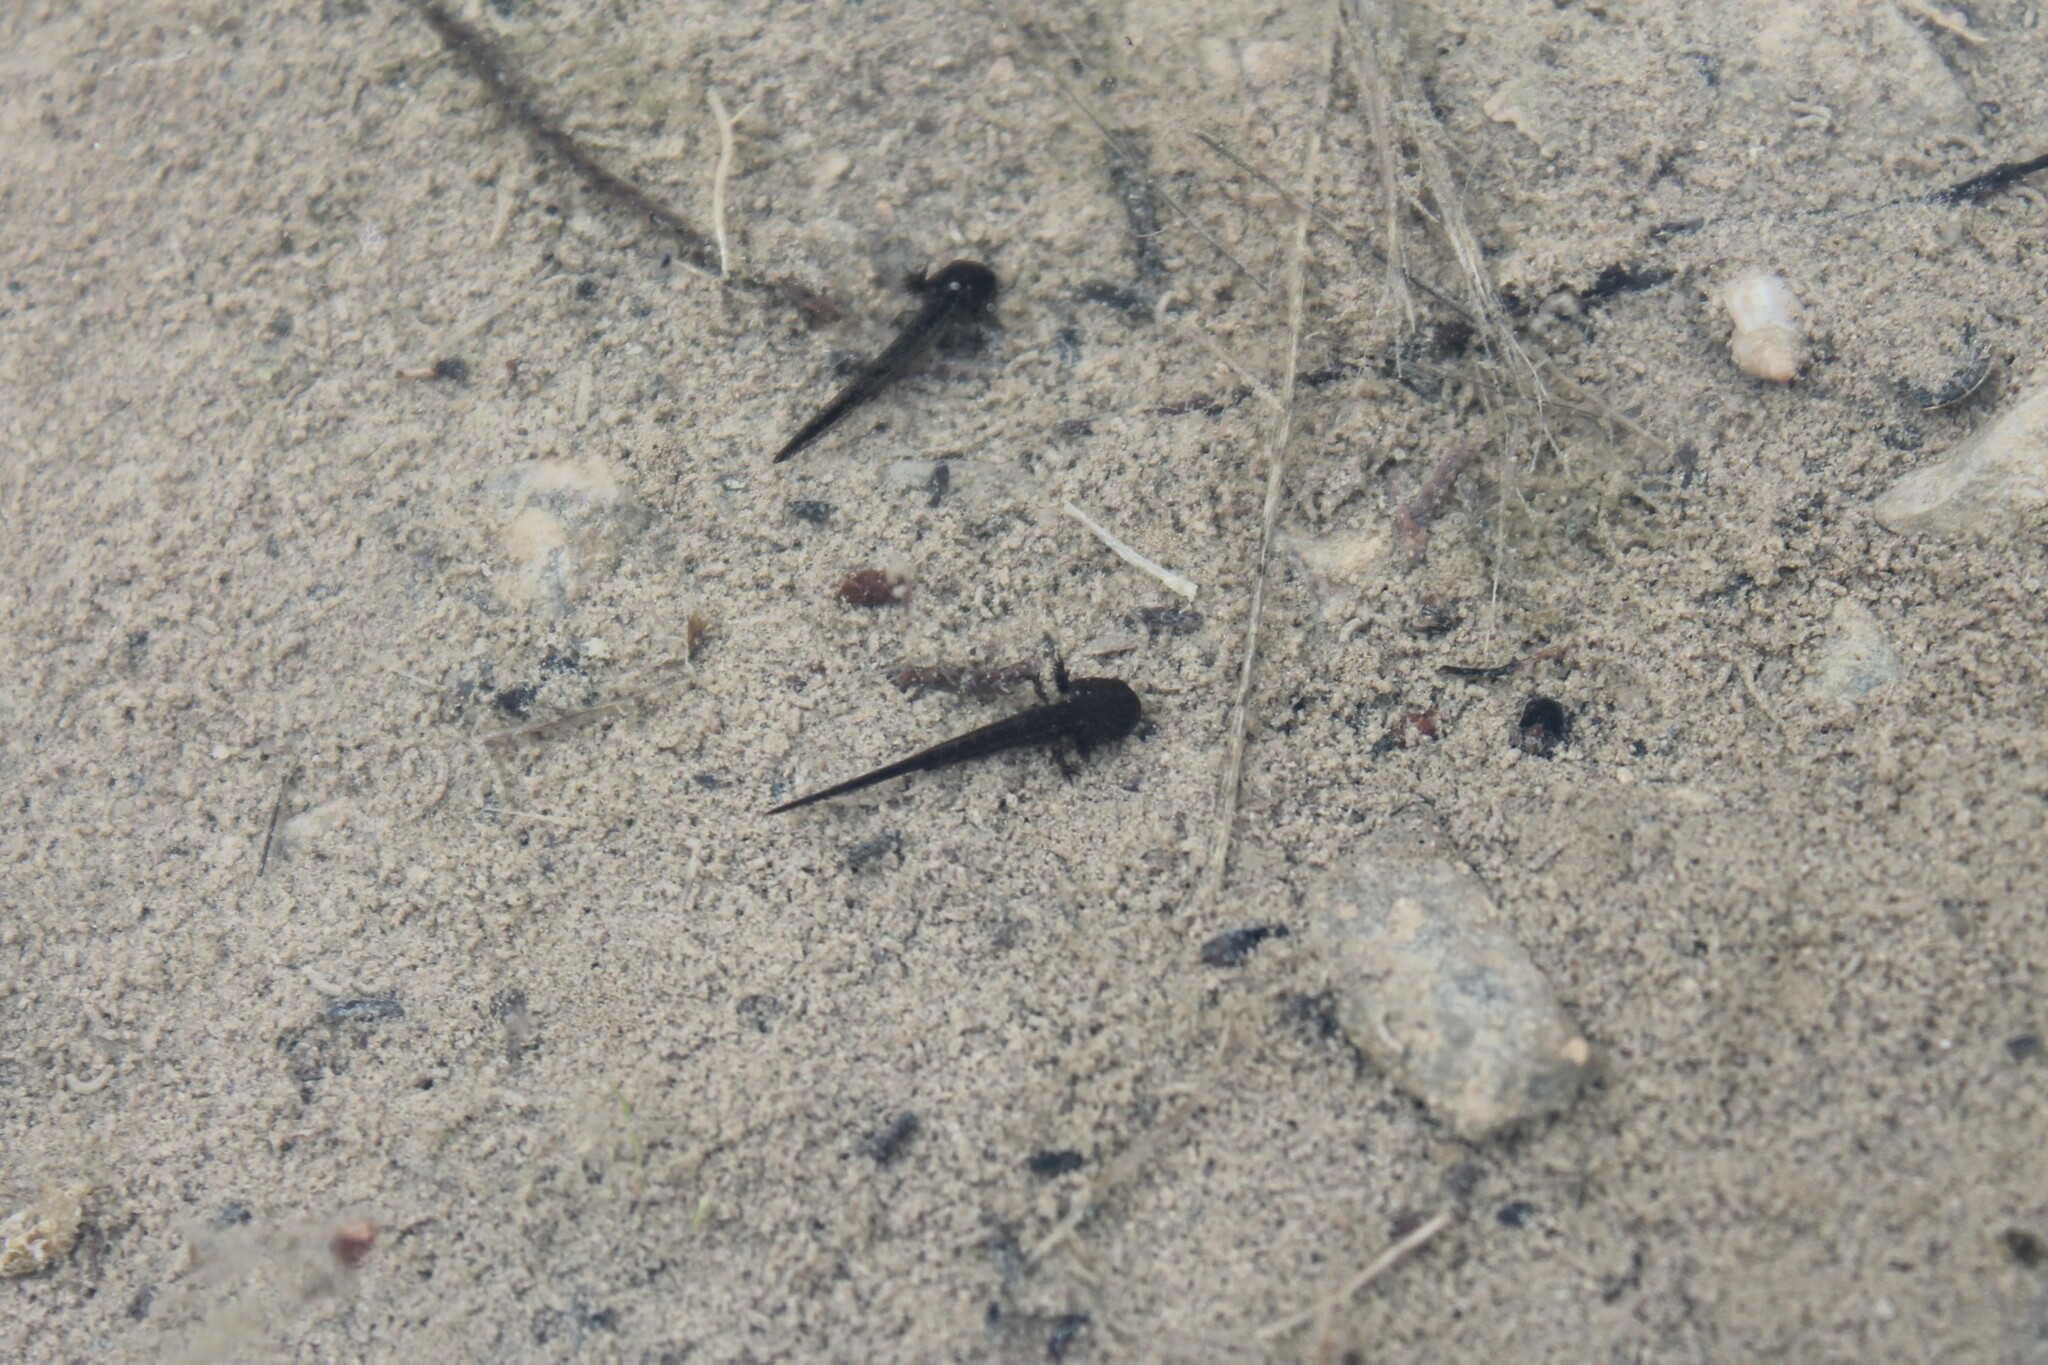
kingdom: Animalia
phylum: Chordata
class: Amphibia
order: Caudata
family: Ambystomatidae
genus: Ambystoma
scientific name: Ambystoma barbouri
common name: Streamside salamander
